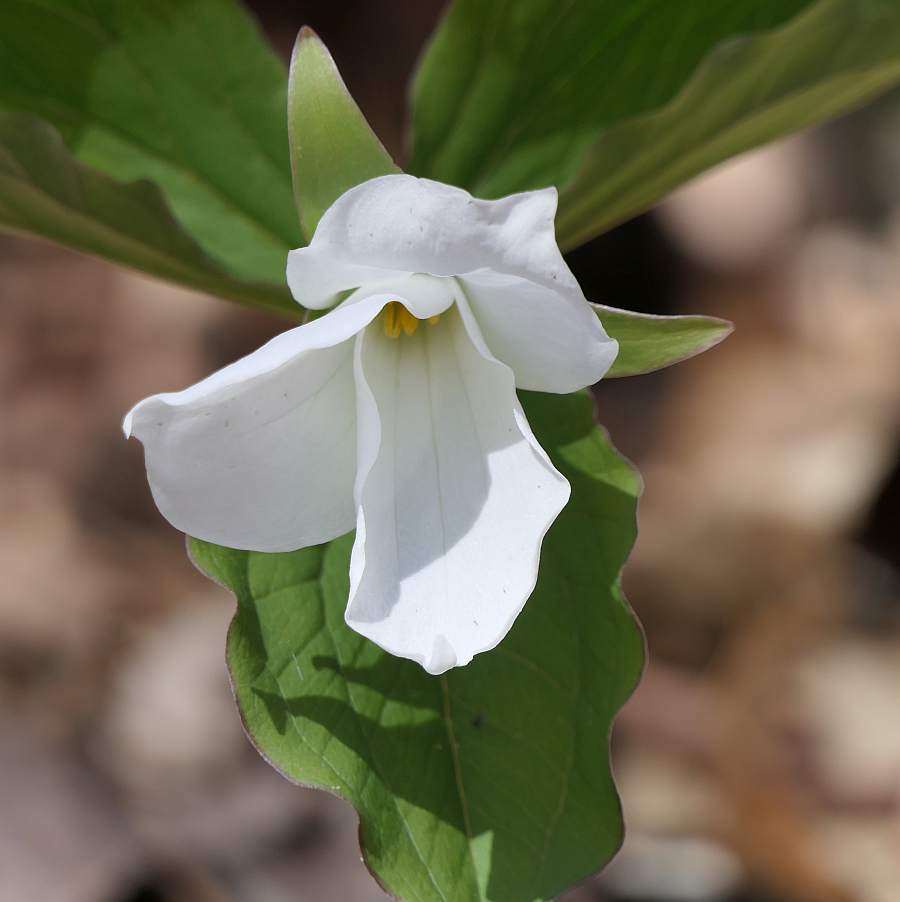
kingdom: Plantae
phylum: Tracheophyta
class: Liliopsida
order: Liliales
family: Melanthiaceae
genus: Trillium
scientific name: Trillium grandiflorum
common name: Great white trillium
